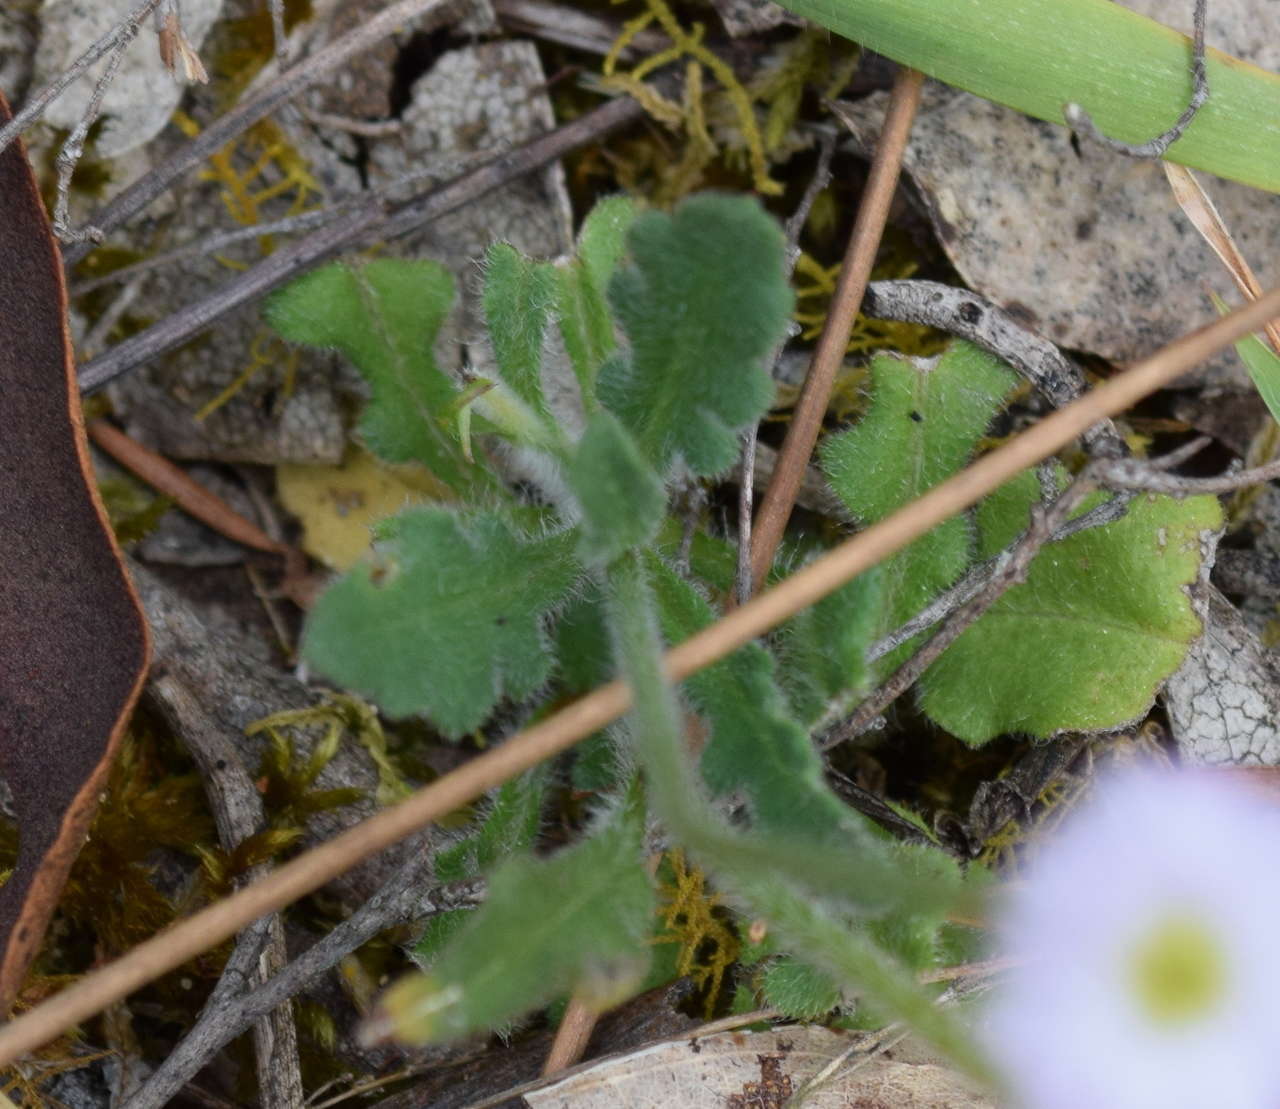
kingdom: Plantae
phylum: Tracheophyta
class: Magnoliopsida
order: Asterales
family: Asteraceae
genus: Lagenophora
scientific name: Lagenophora stipitata
